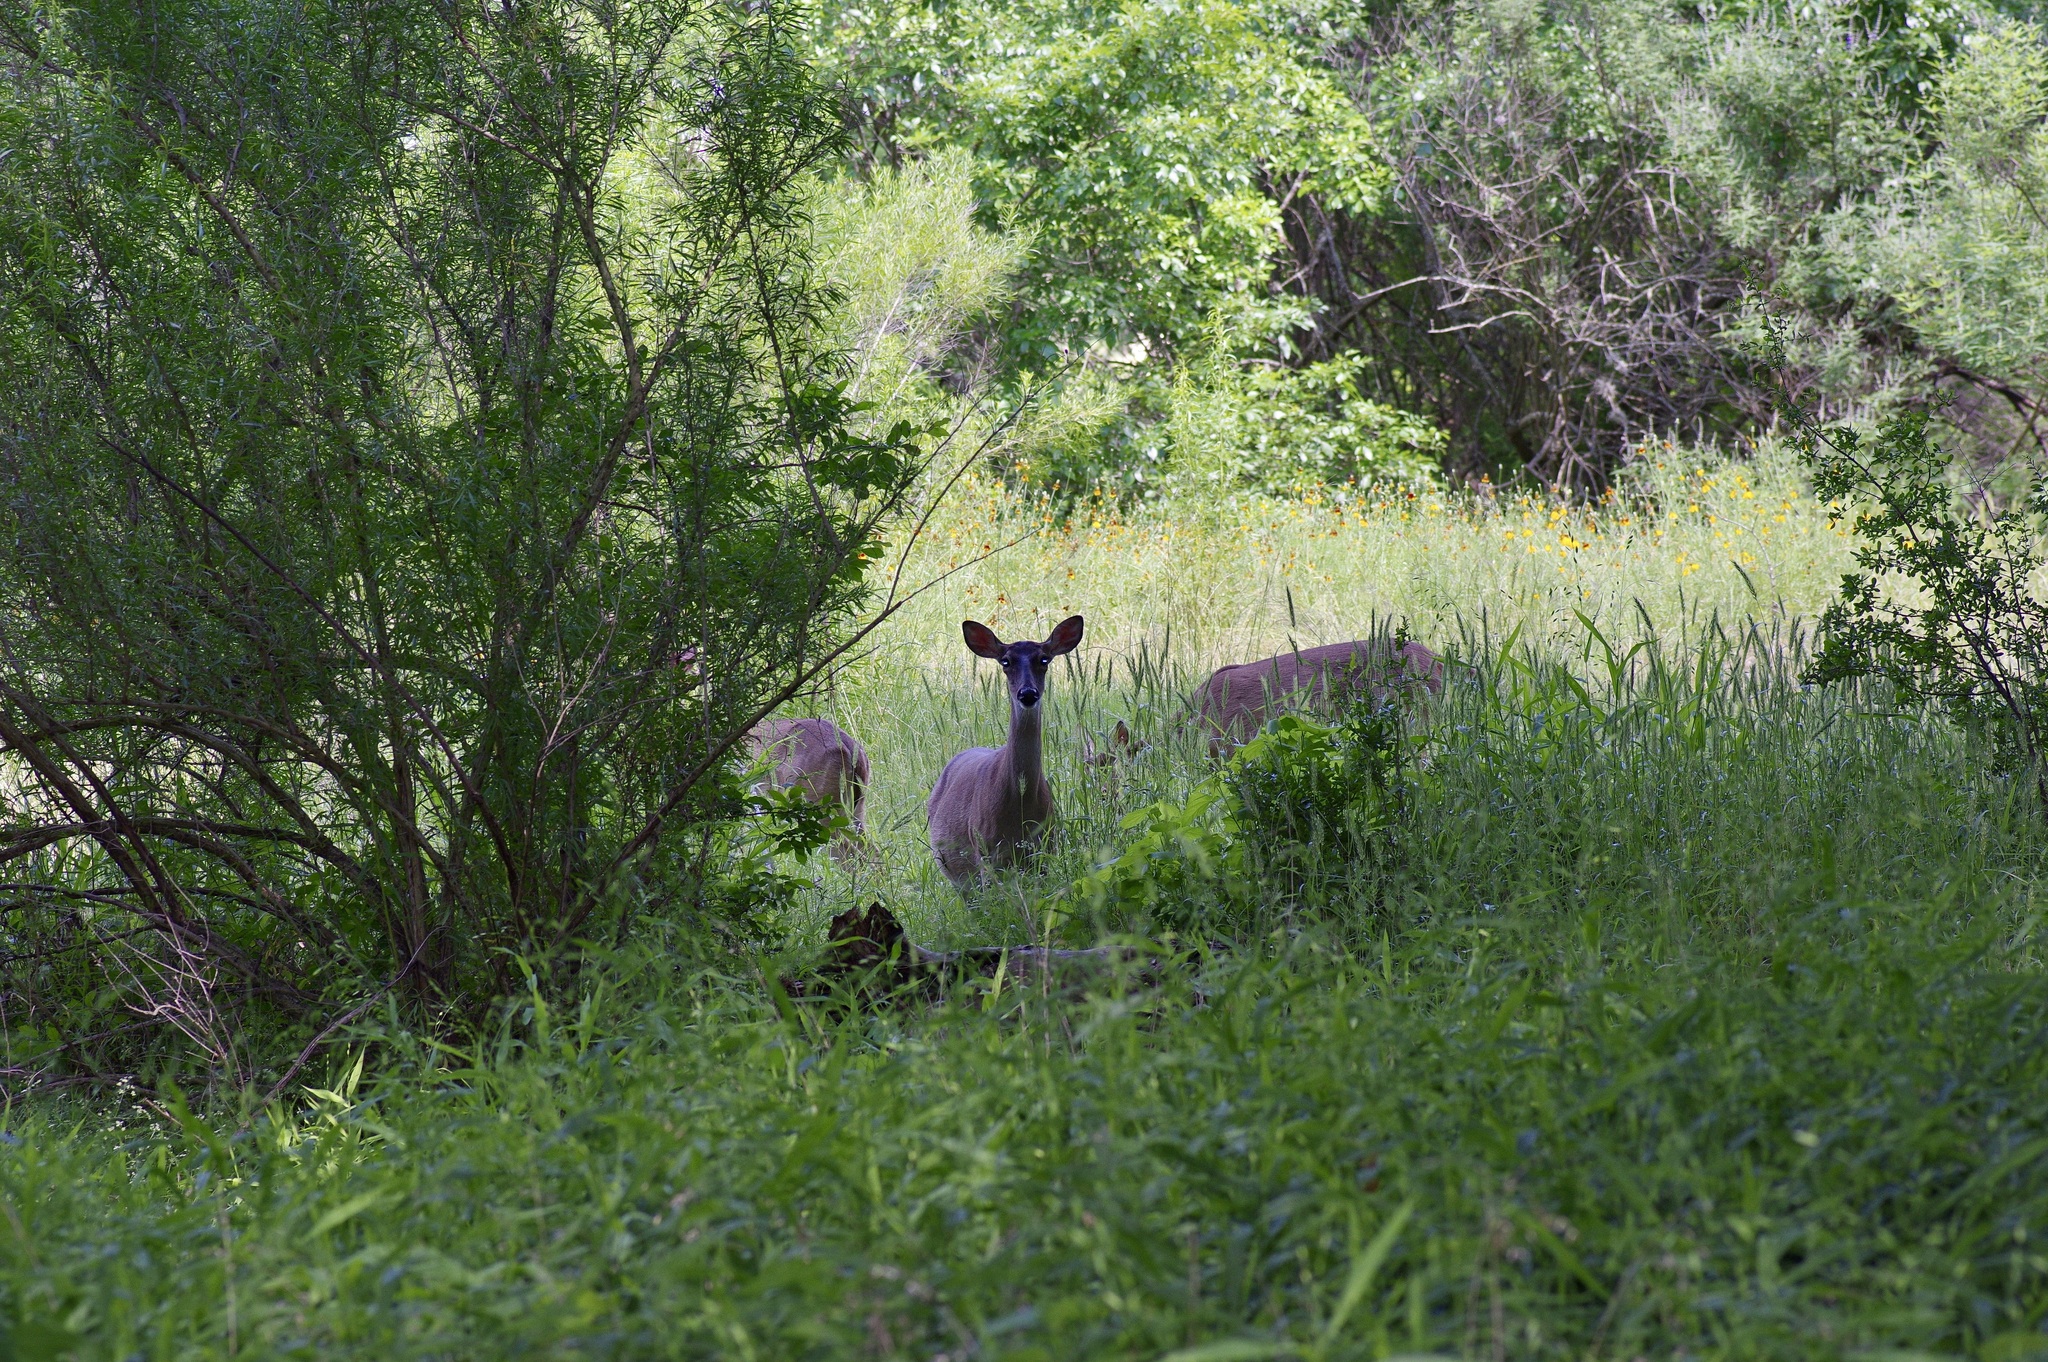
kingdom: Animalia
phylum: Chordata
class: Mammalia
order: Artiodactyla
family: Cervidae
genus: Odocoileus
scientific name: Odocoileus virginianus
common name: White-tailed deer
